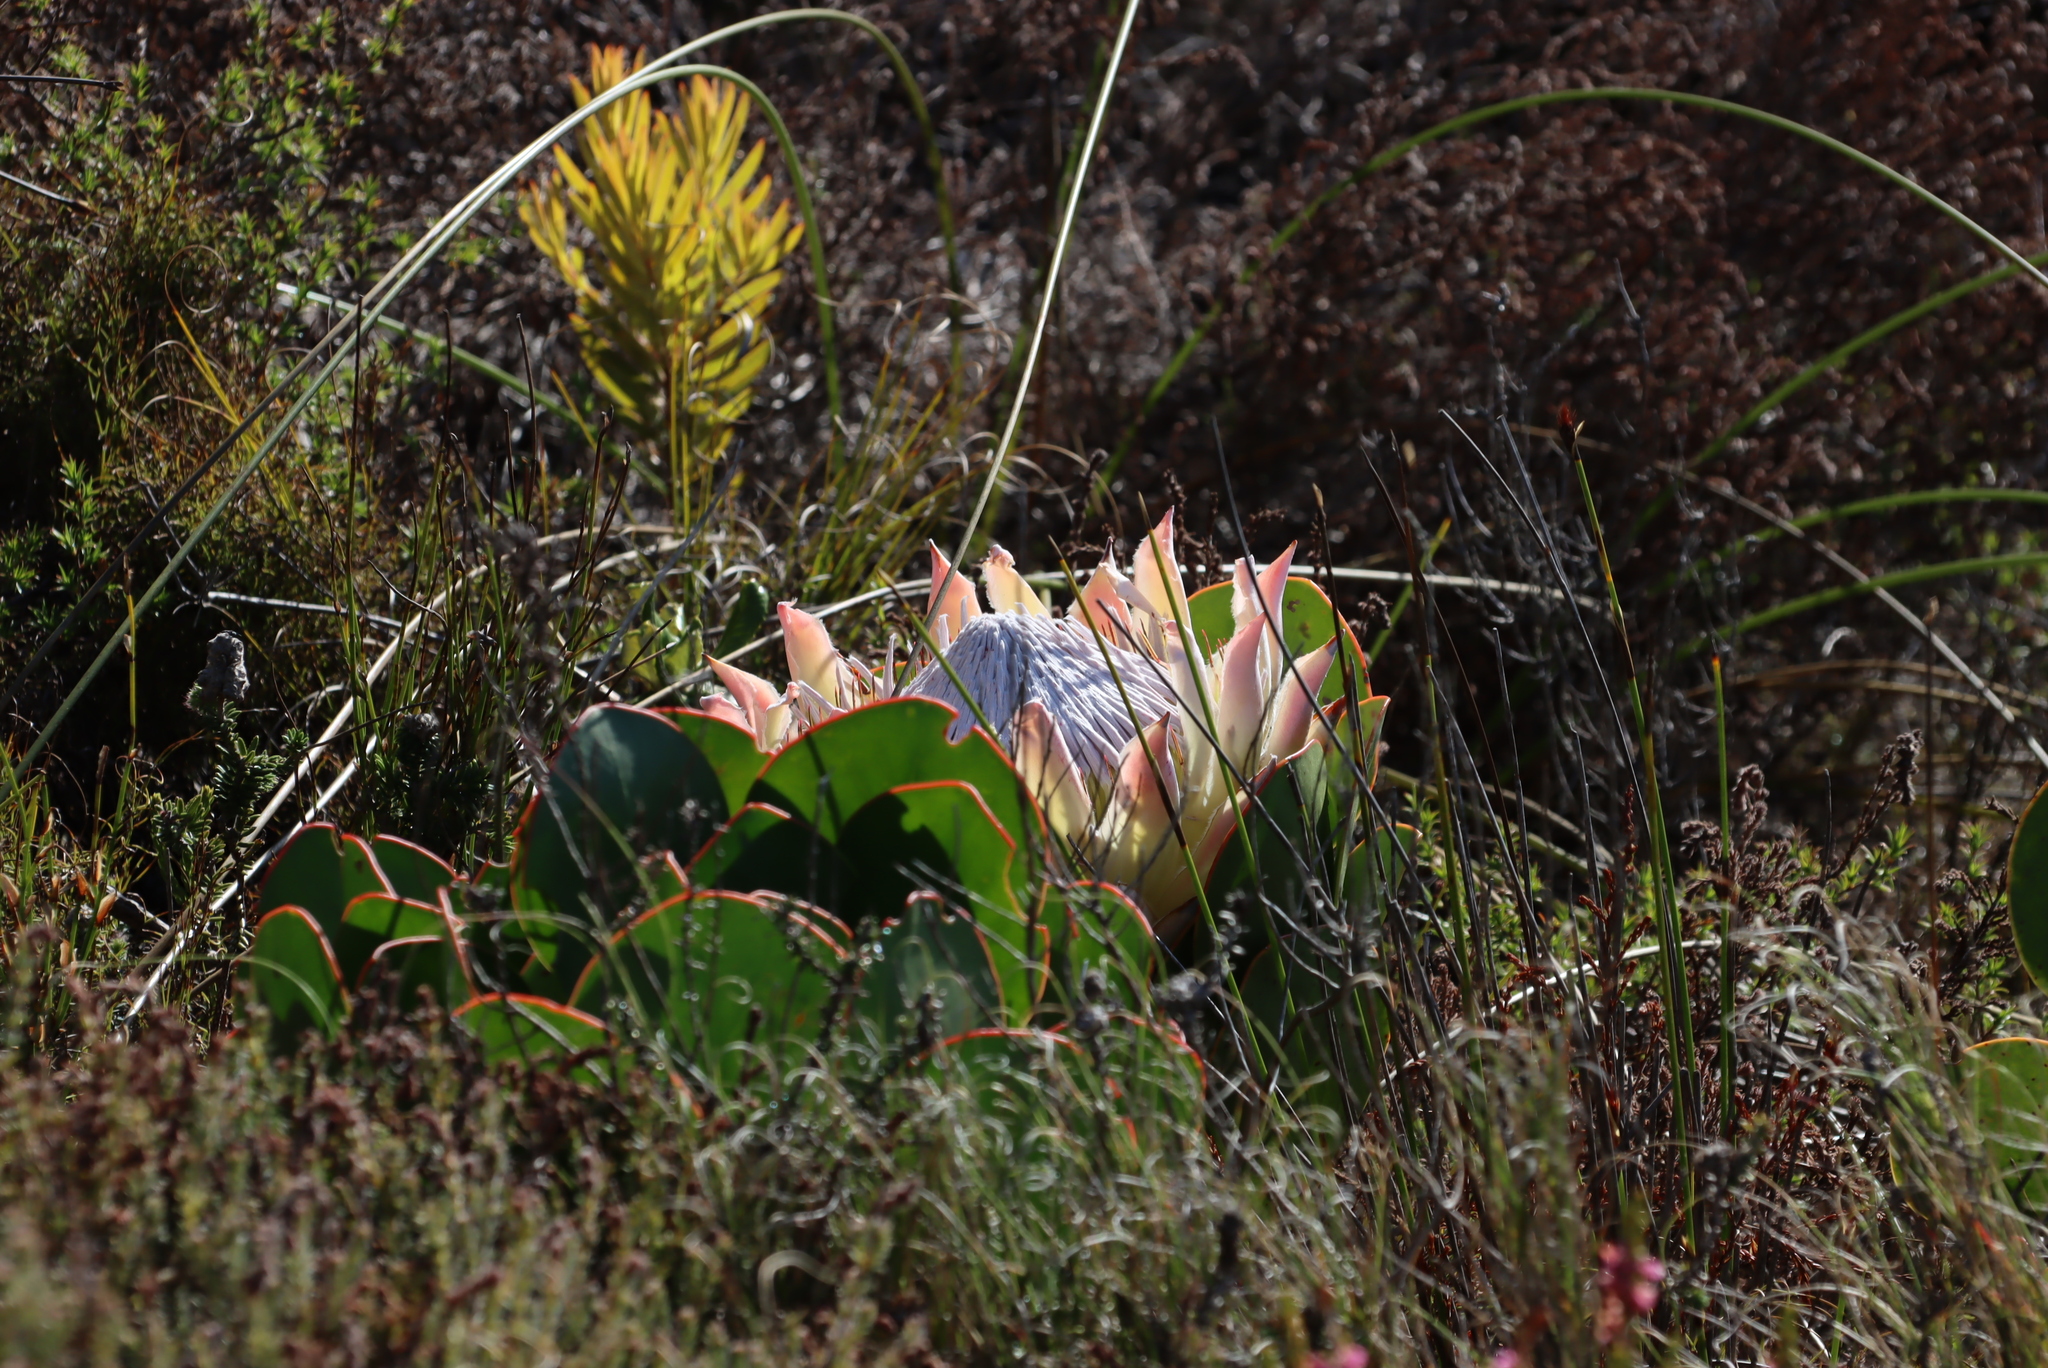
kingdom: Plantae
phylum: Tracheophyta
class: Magnoliopsida
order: Proteales
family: Proteaceae
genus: Protea
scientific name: Protea cynaroides
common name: King protea
